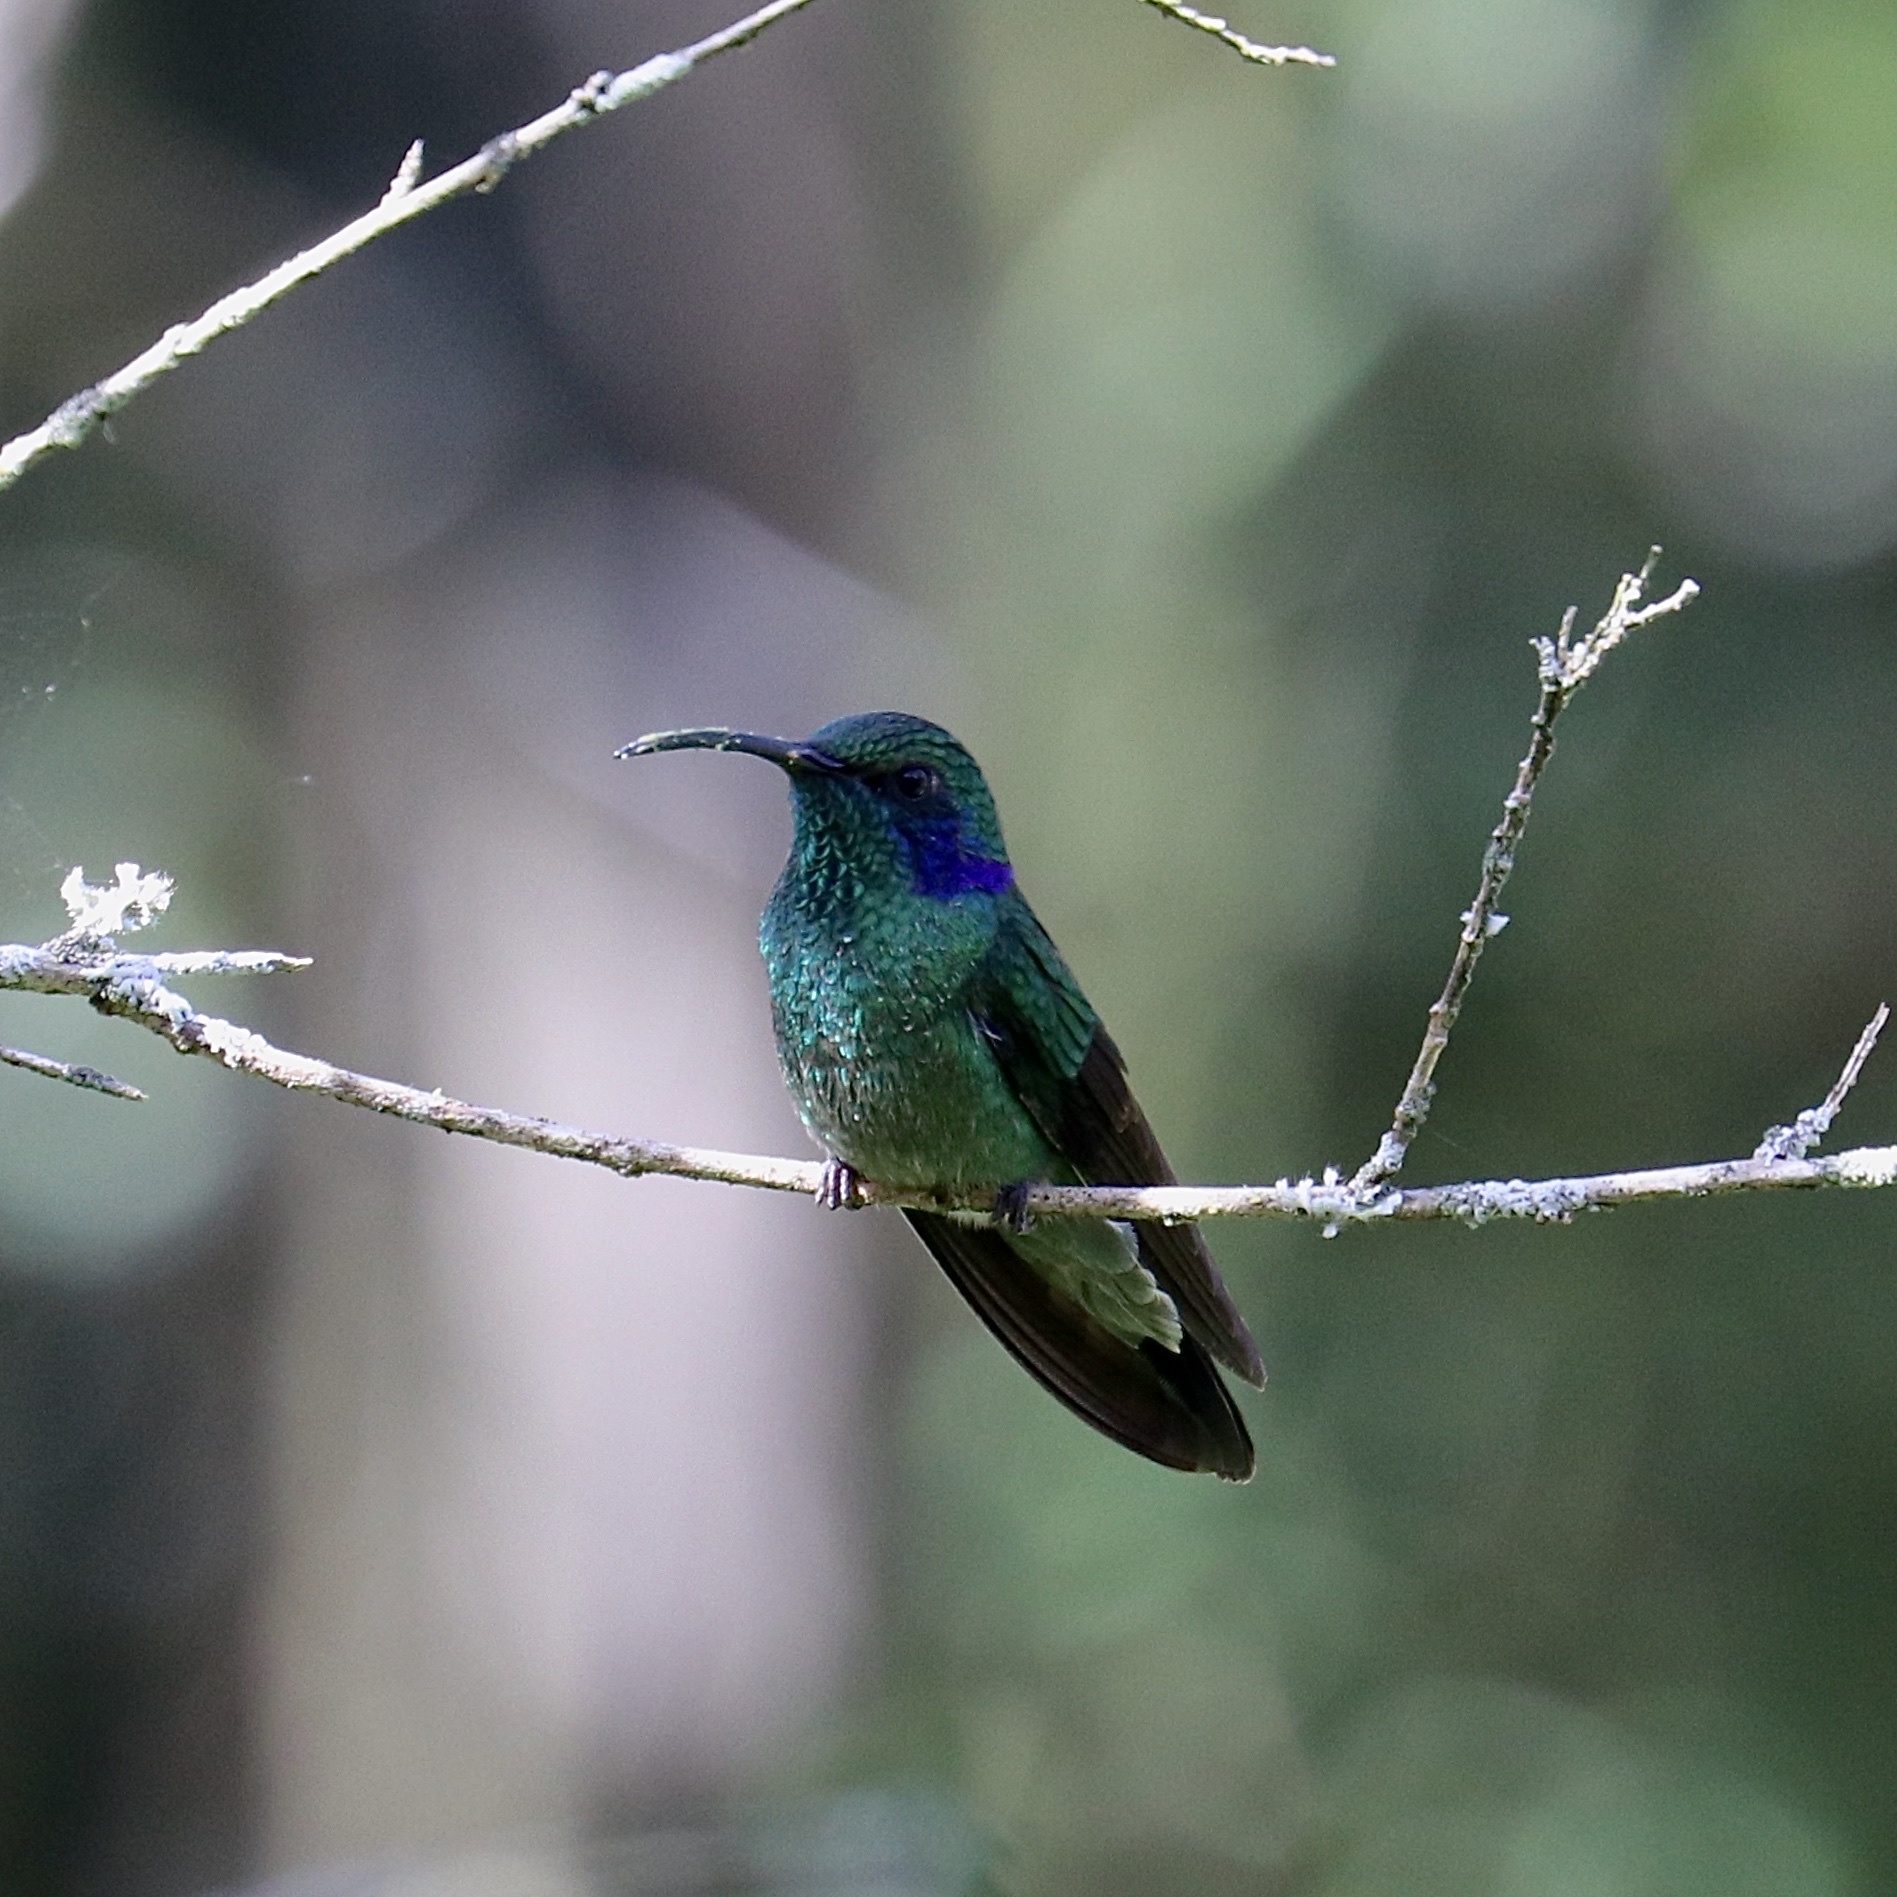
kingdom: Animalia
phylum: Chordata
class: Aves
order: Apodiformes
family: Trochilidae
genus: Colibri
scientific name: Colibri cyanotus
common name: Lesser violetear
